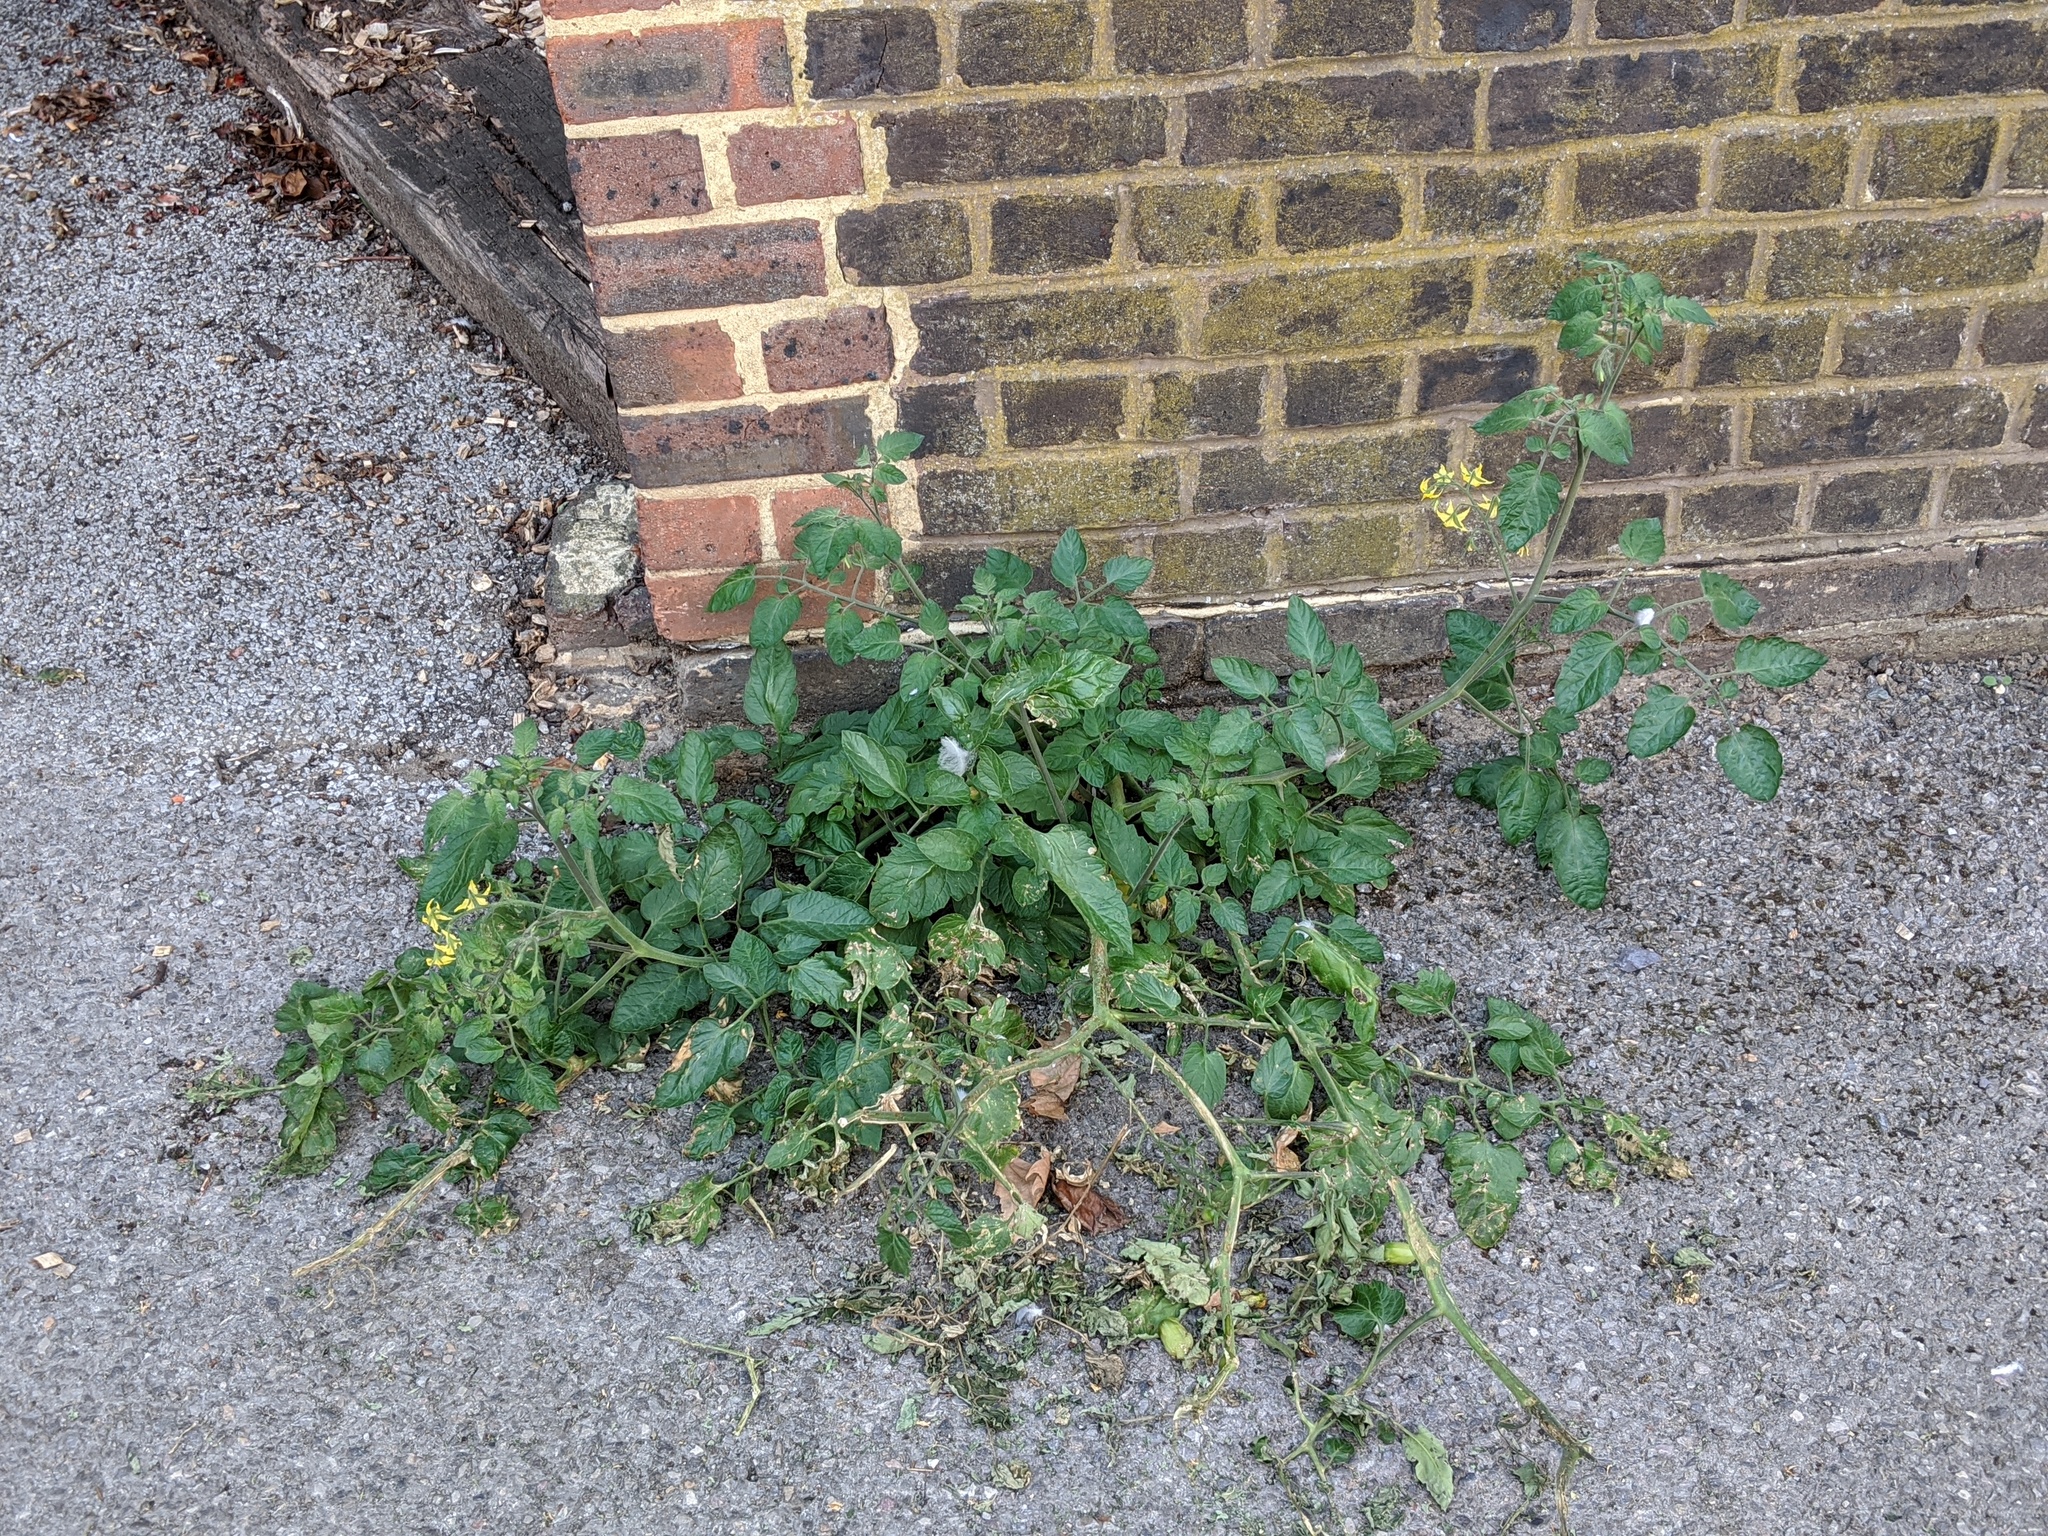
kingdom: Plantae
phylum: Tracheophyta
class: Magnoliopsida
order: Solanales
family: Solanaceae
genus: Solanum
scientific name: Solanum lycopersicum
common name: Garden tomato
